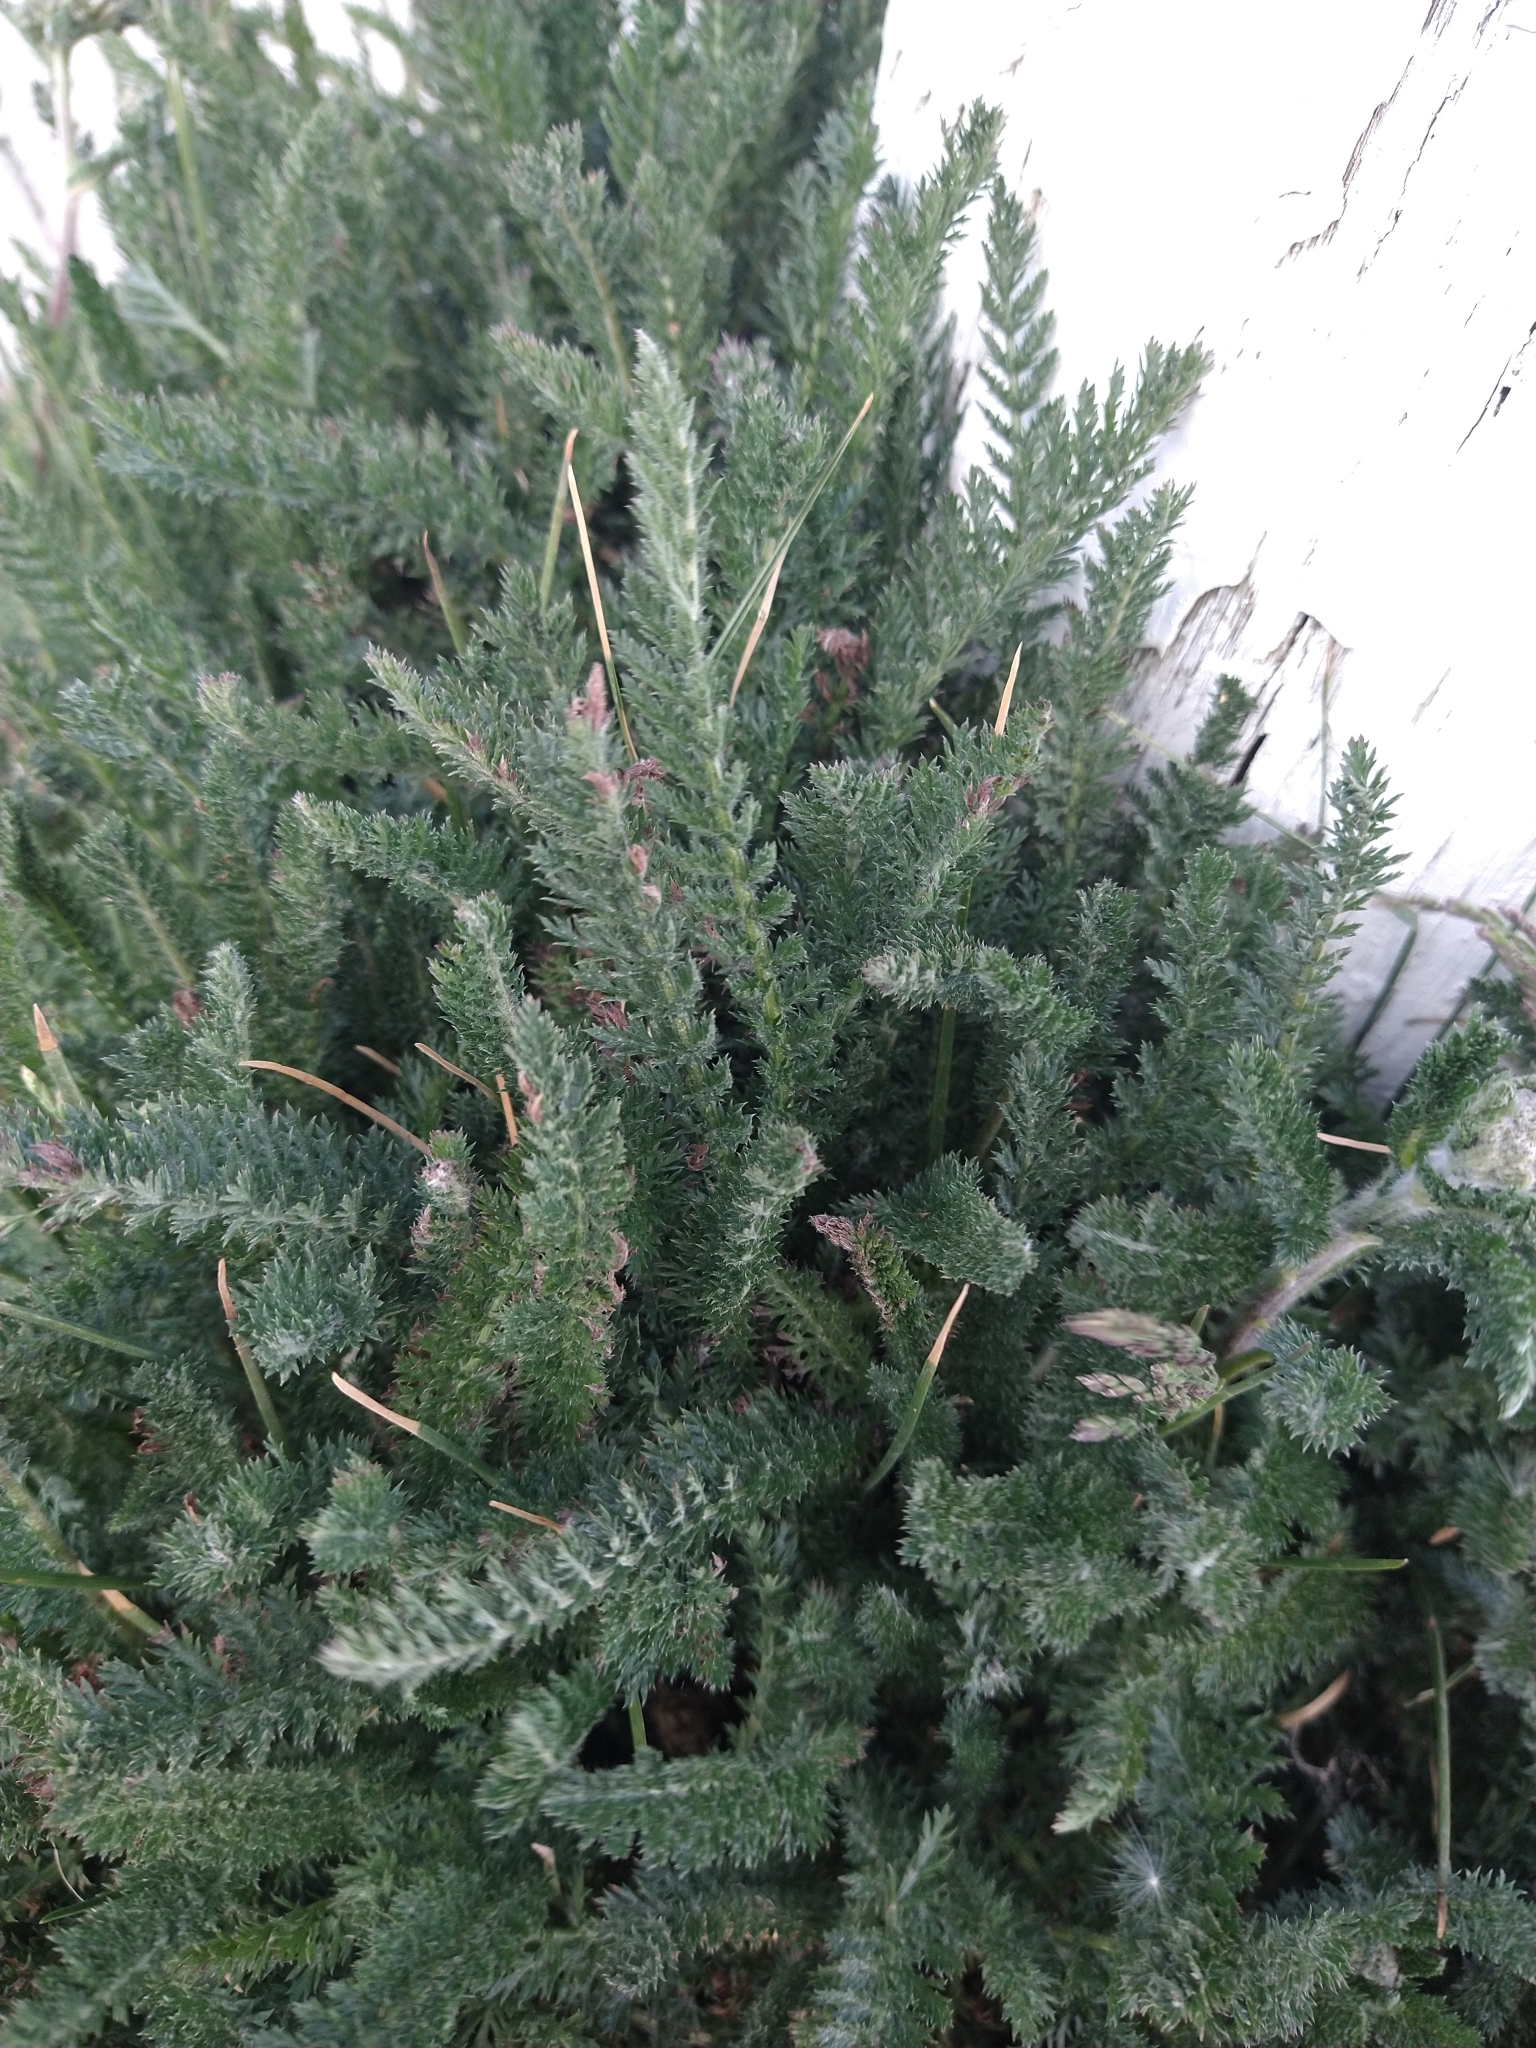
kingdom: Plantae
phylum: Tracheophyta
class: Magnoliopsida
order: Asterales
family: Asteraceae
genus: Achillea
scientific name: Achillea millefolium
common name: Yarrow
